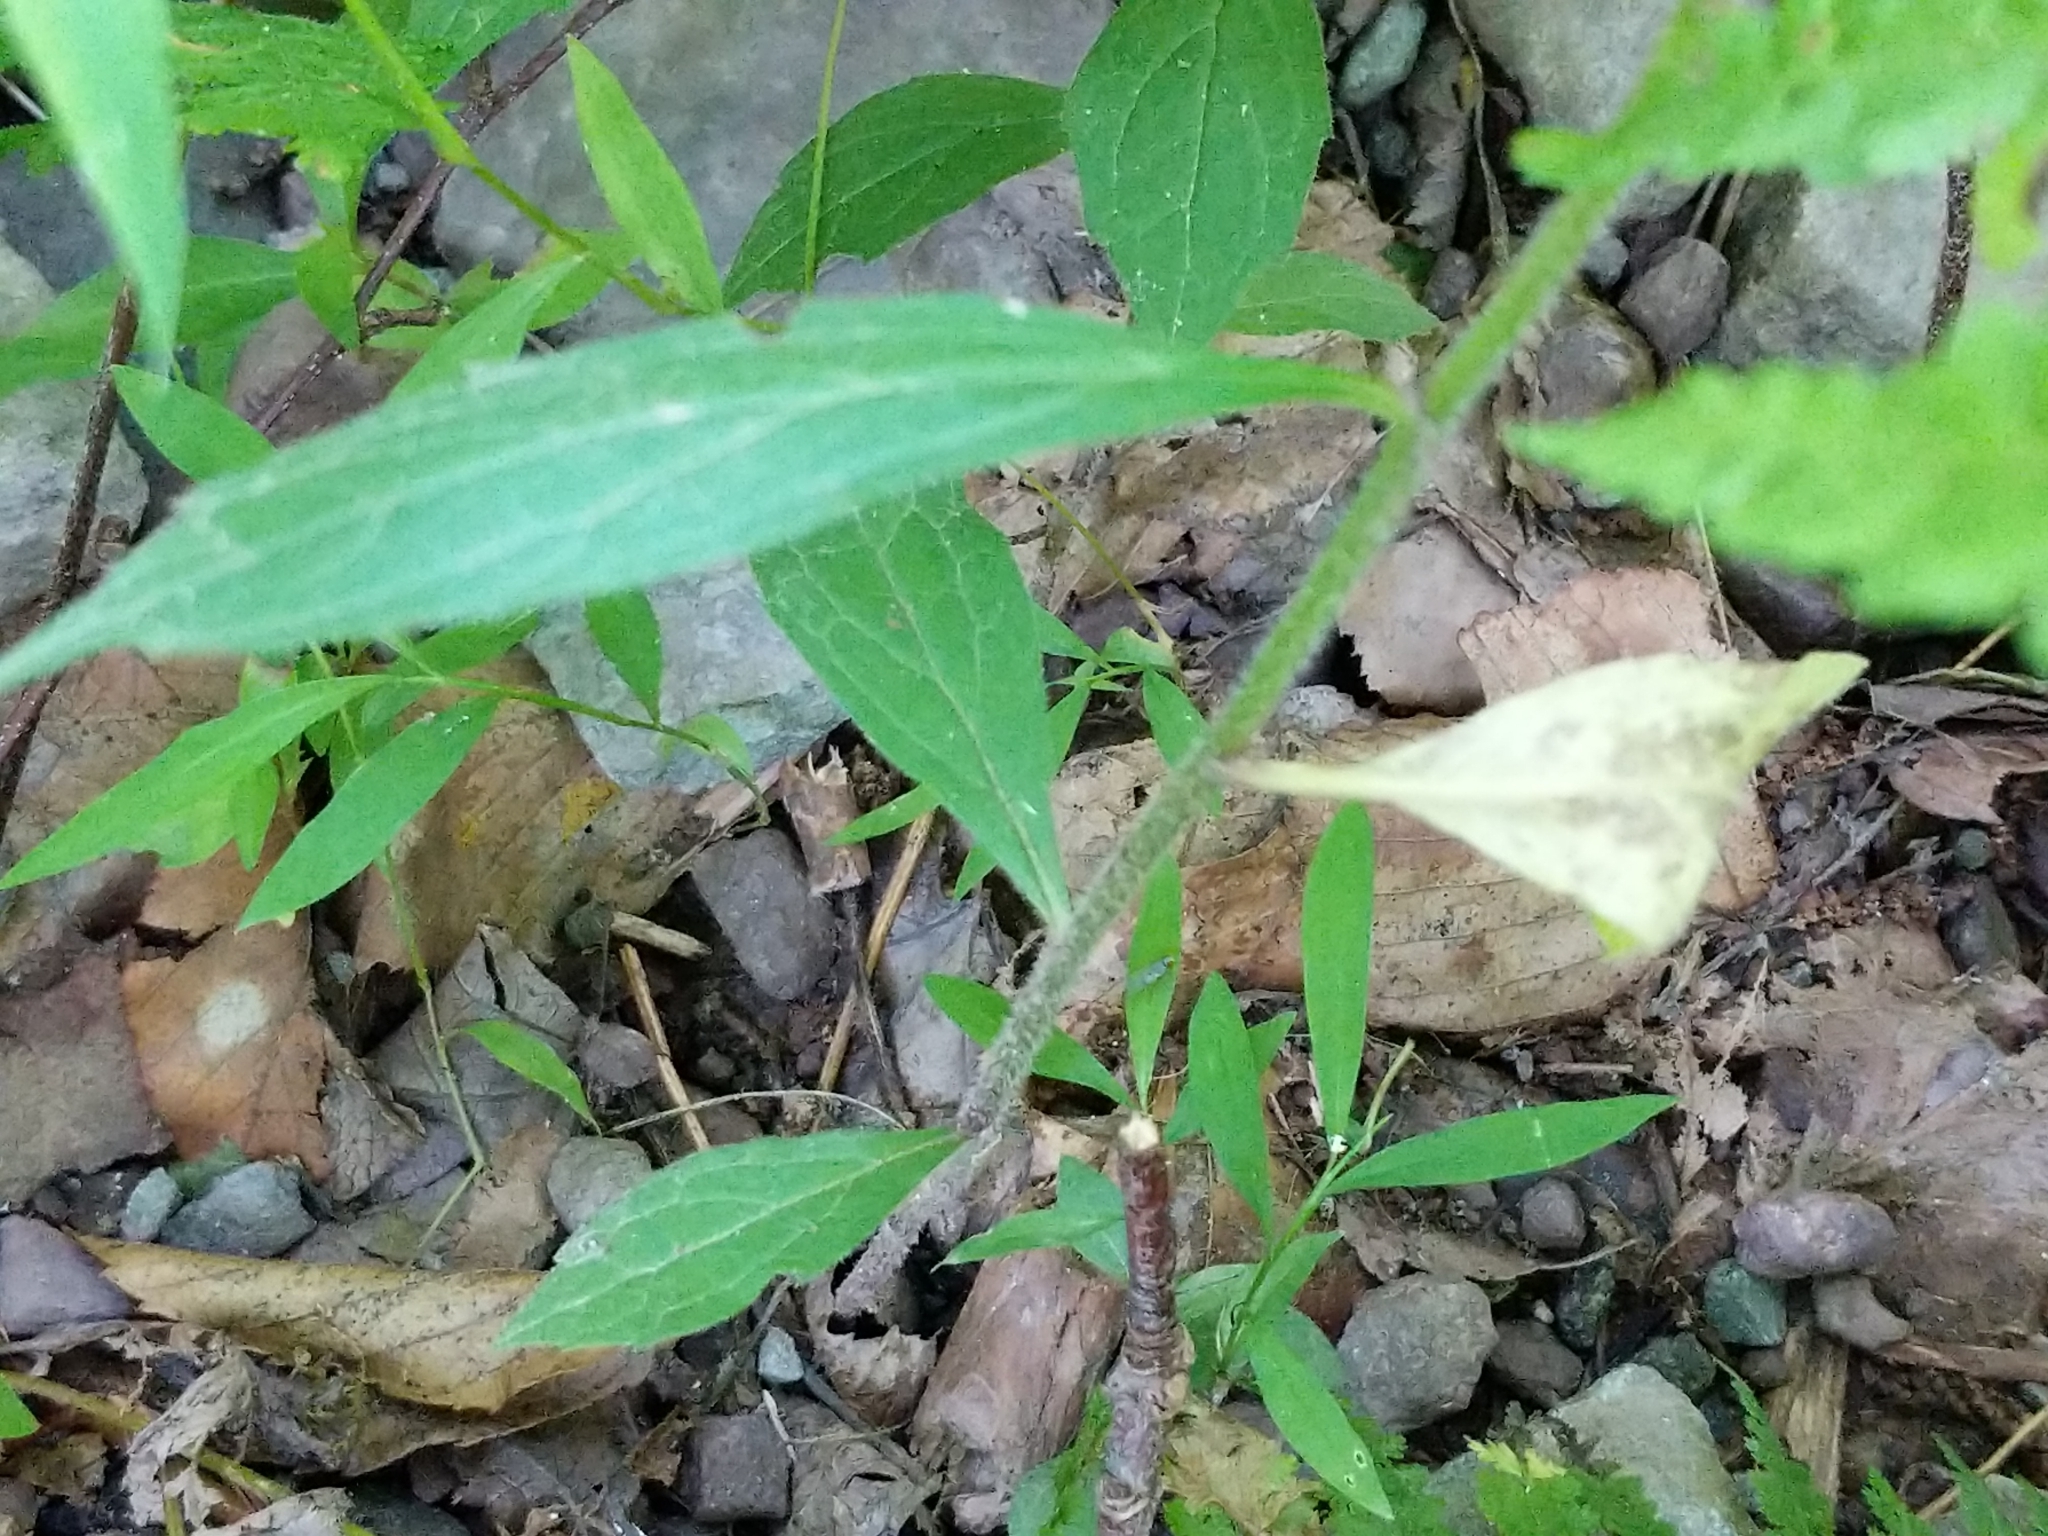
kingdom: Plantae
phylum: Tracheophyta
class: Magnoliopsida
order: Asterales
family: Asteraceae
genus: Oclemena
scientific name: Oclemena acuminata
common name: Mountain aster
